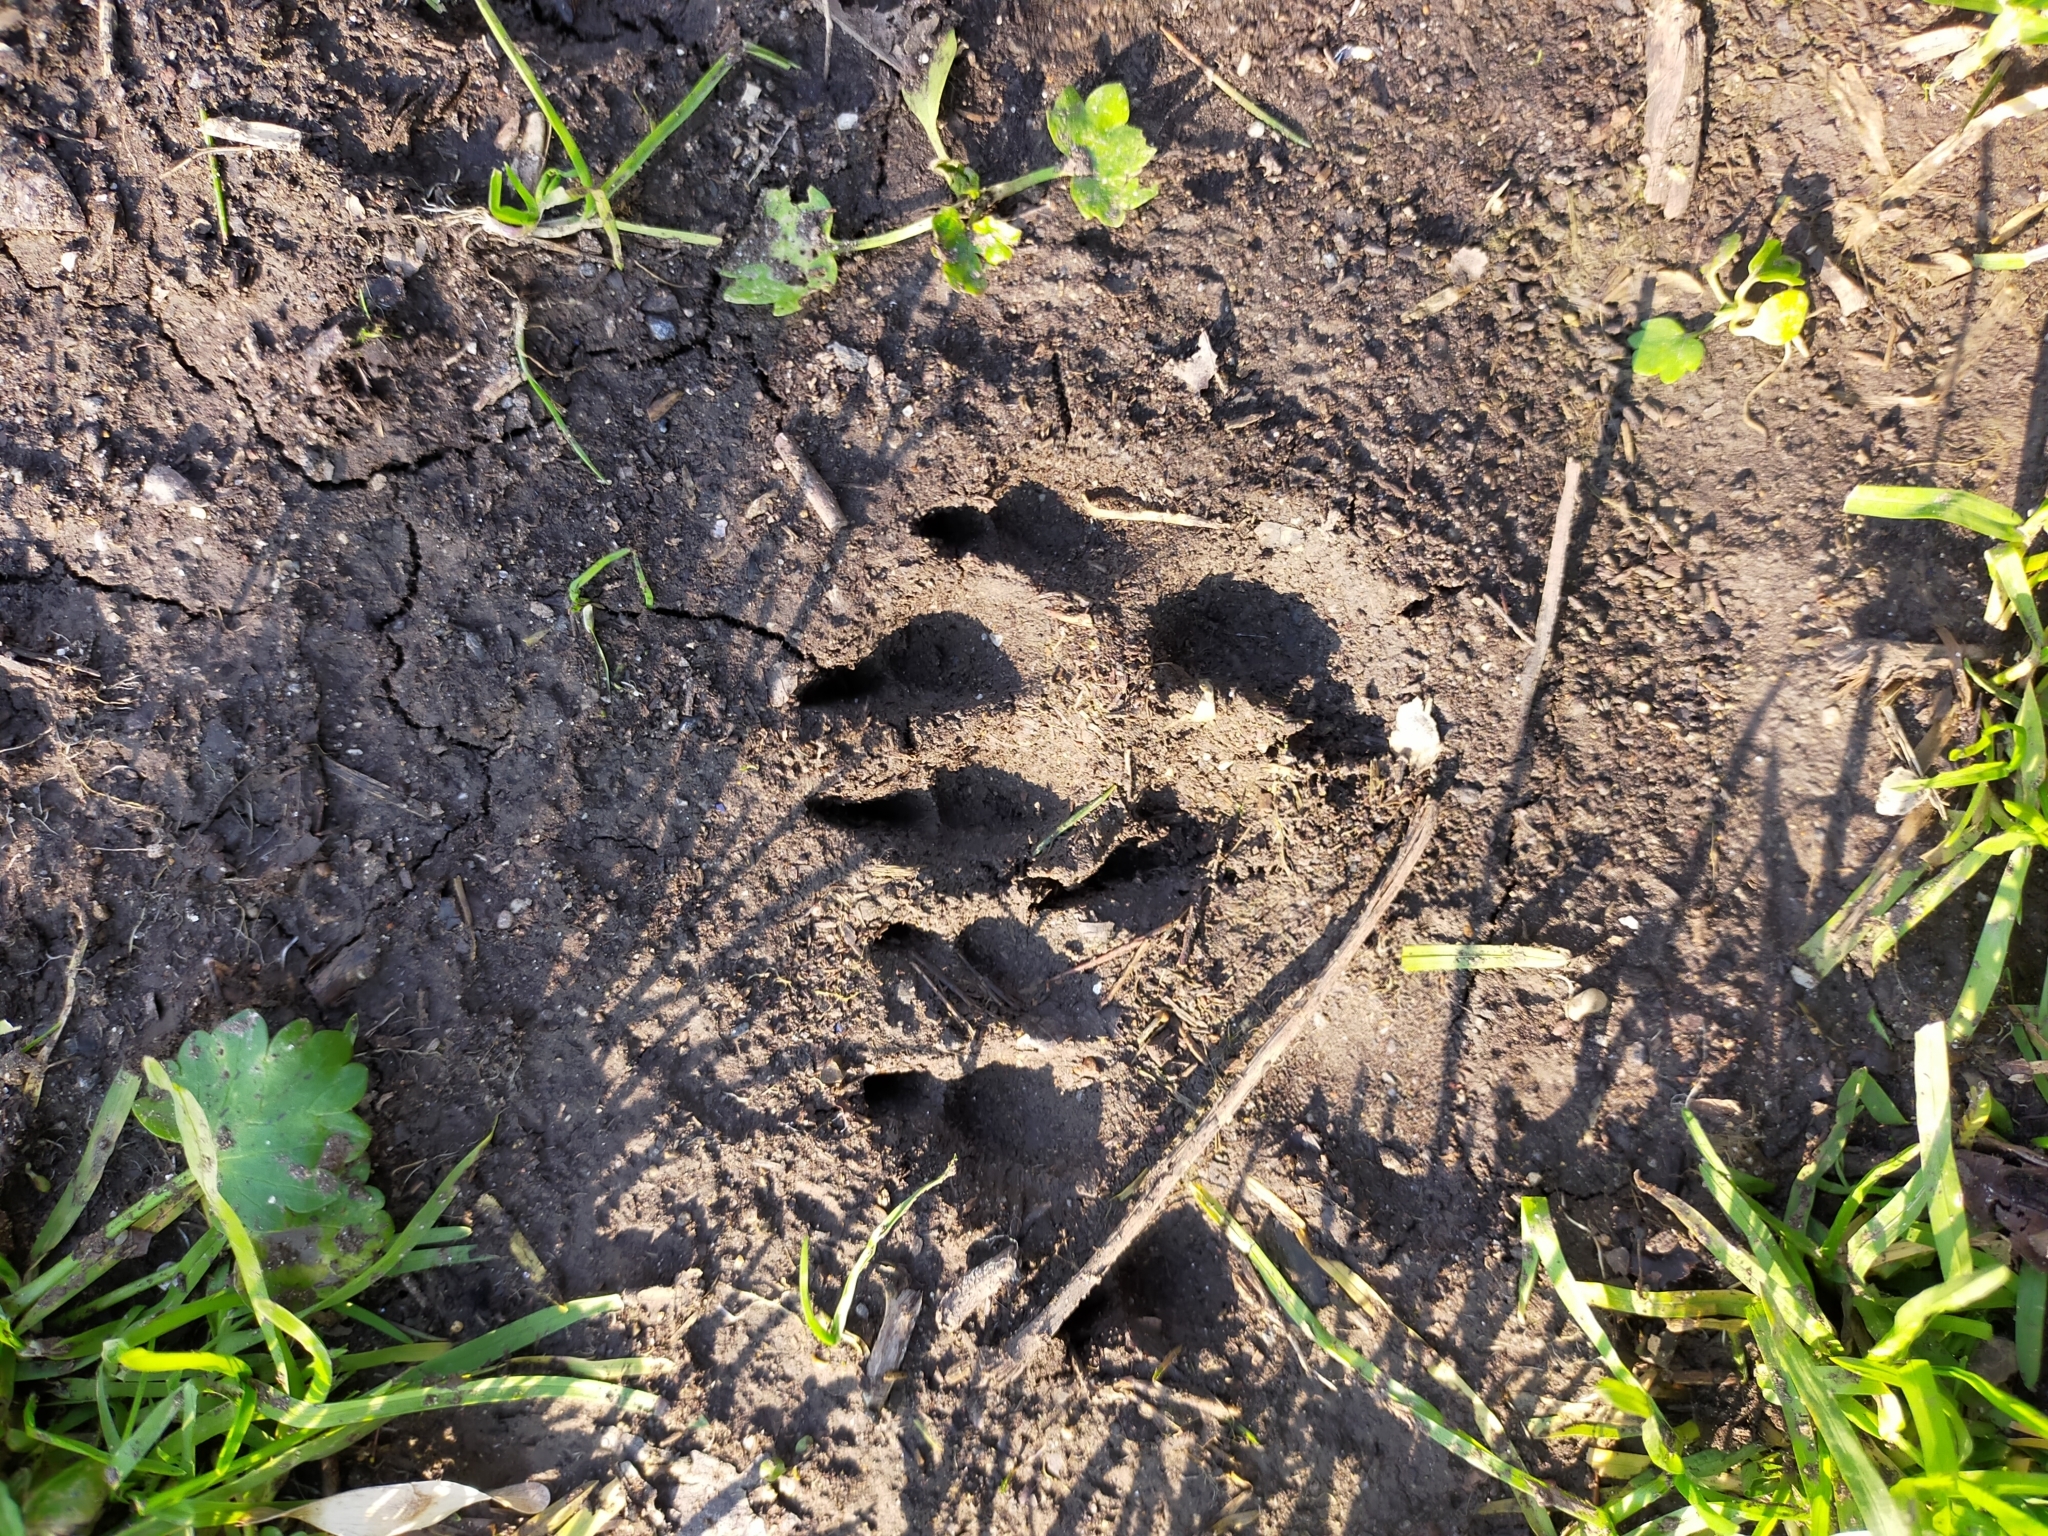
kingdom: Animalia
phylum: Chordata
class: Mammalia
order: Carnivora
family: Canidae
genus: Canis
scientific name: Canis lupus
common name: Gray wolf
